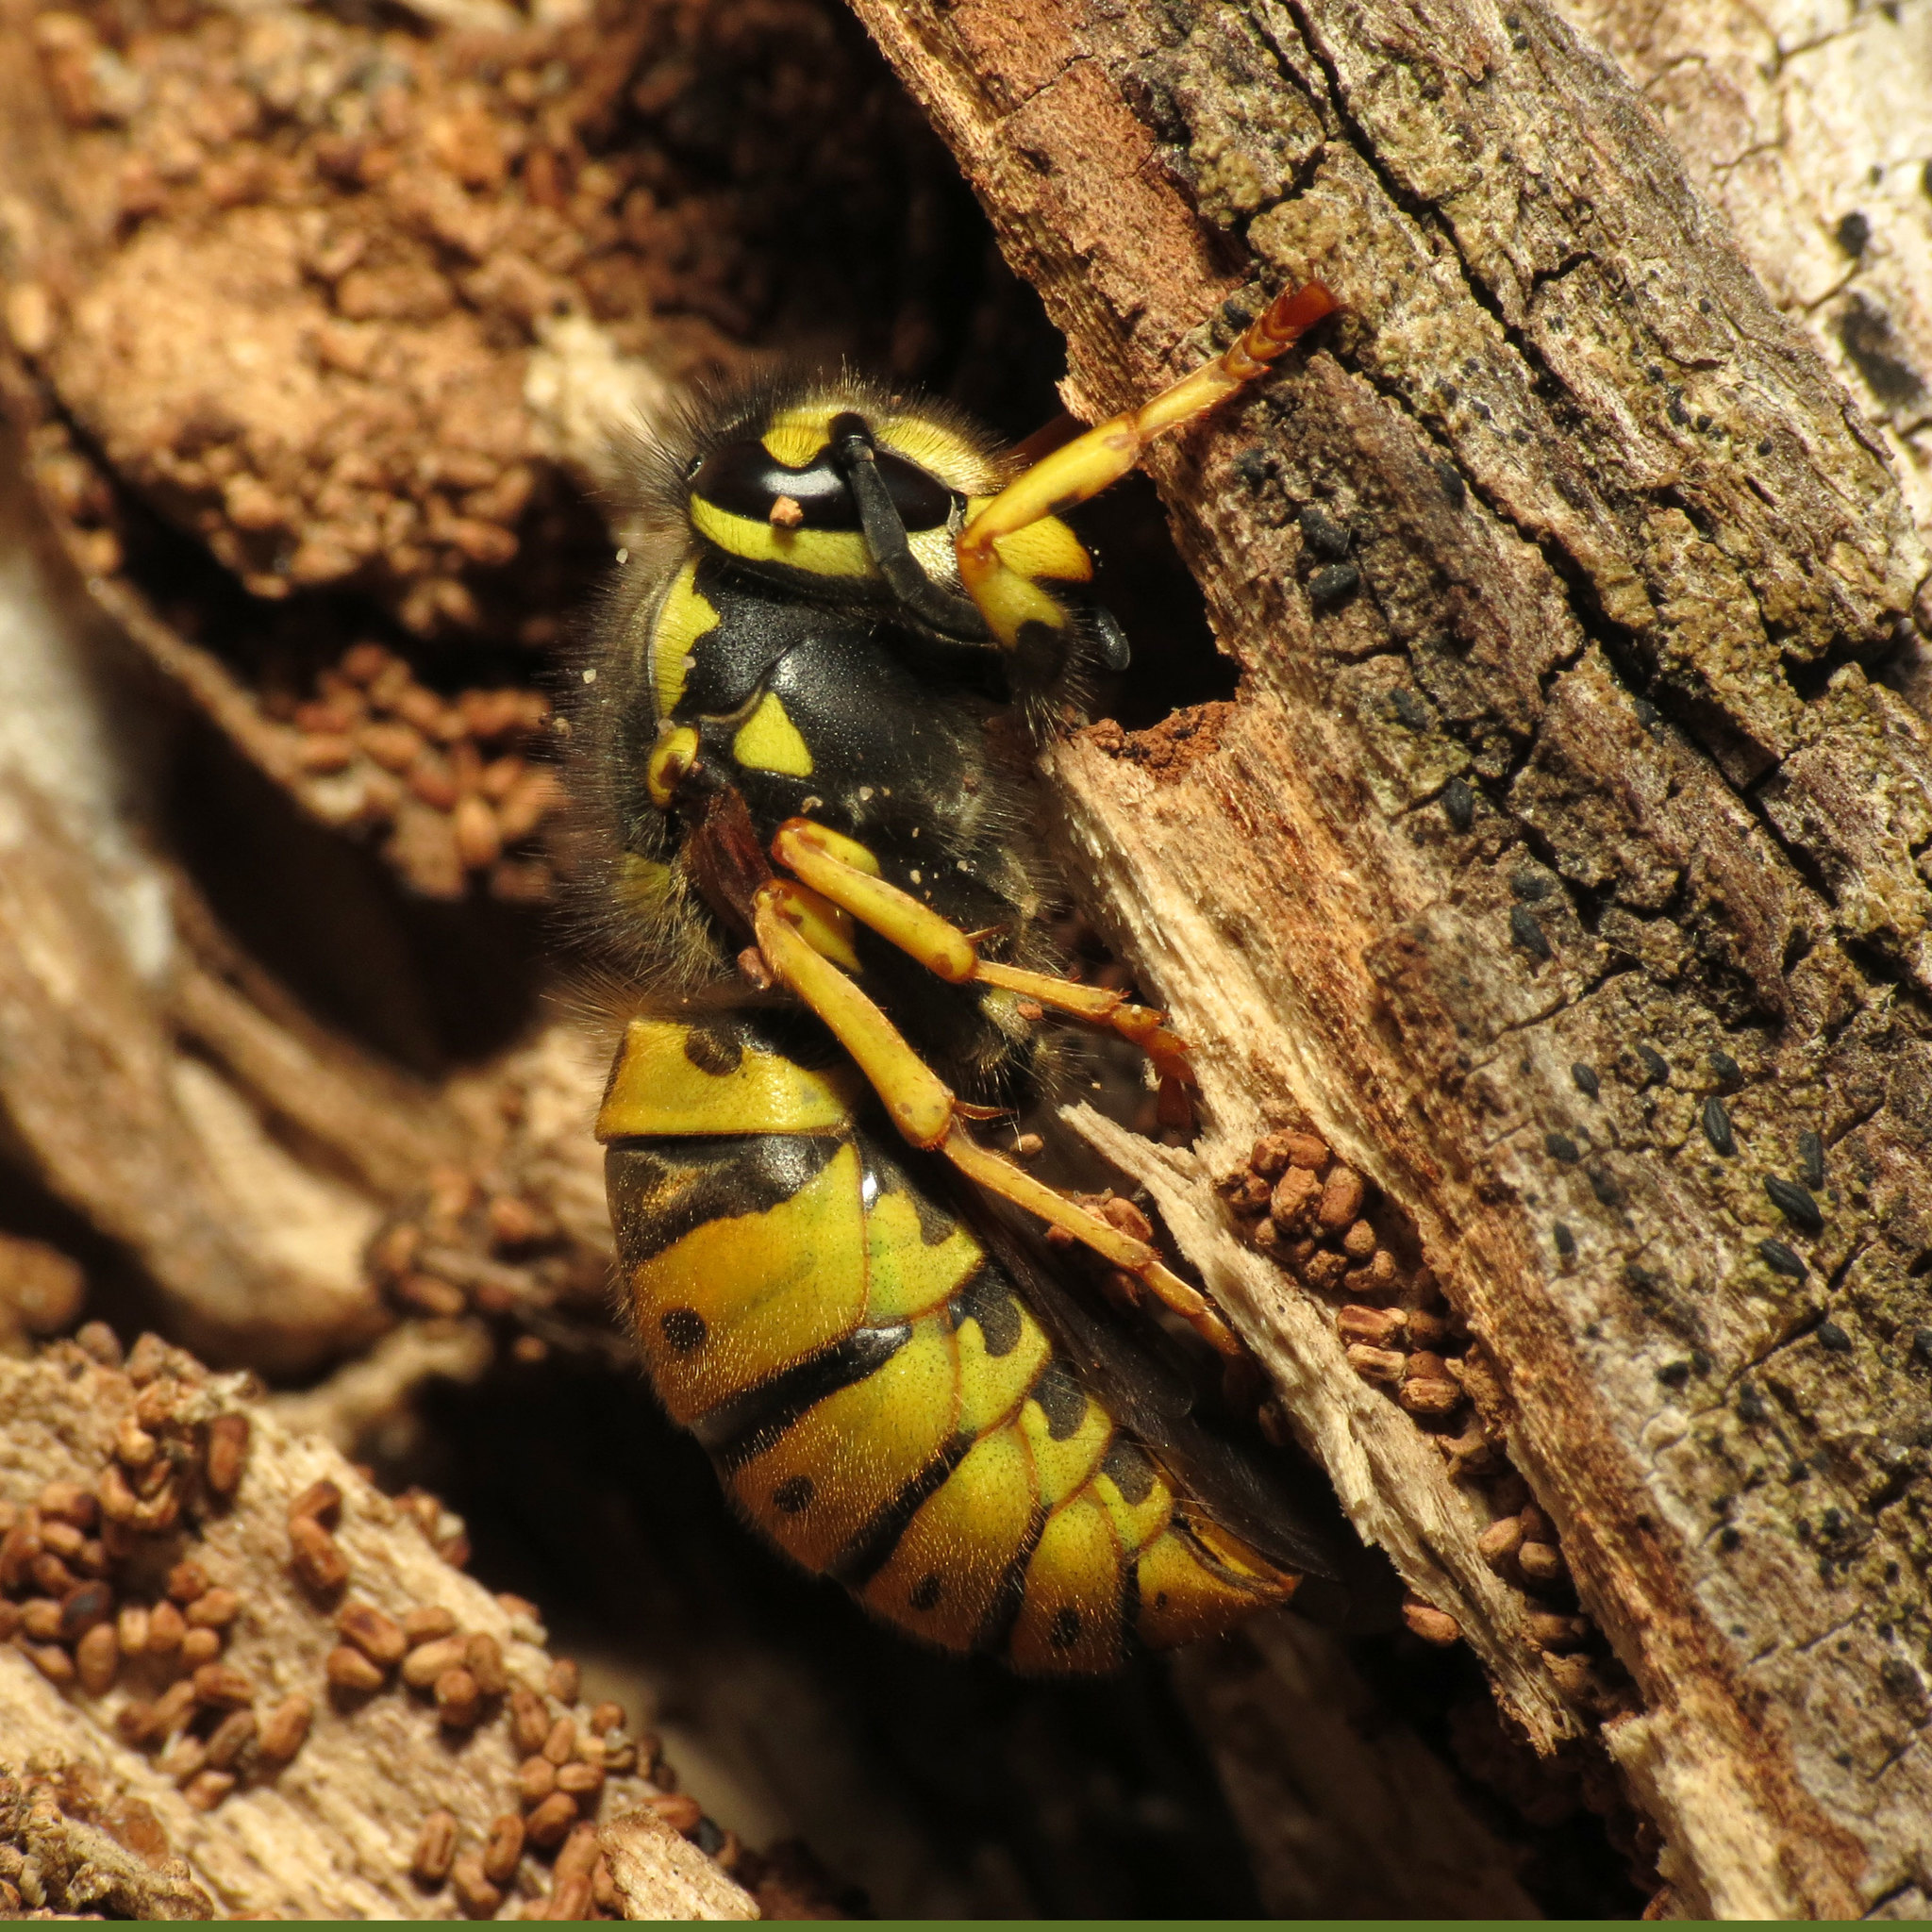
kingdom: Animalia
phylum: Arthropoda
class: Insecta
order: Hymenoptera
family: Vespidae
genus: Vespula
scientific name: Vespula germanica
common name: German wasp
